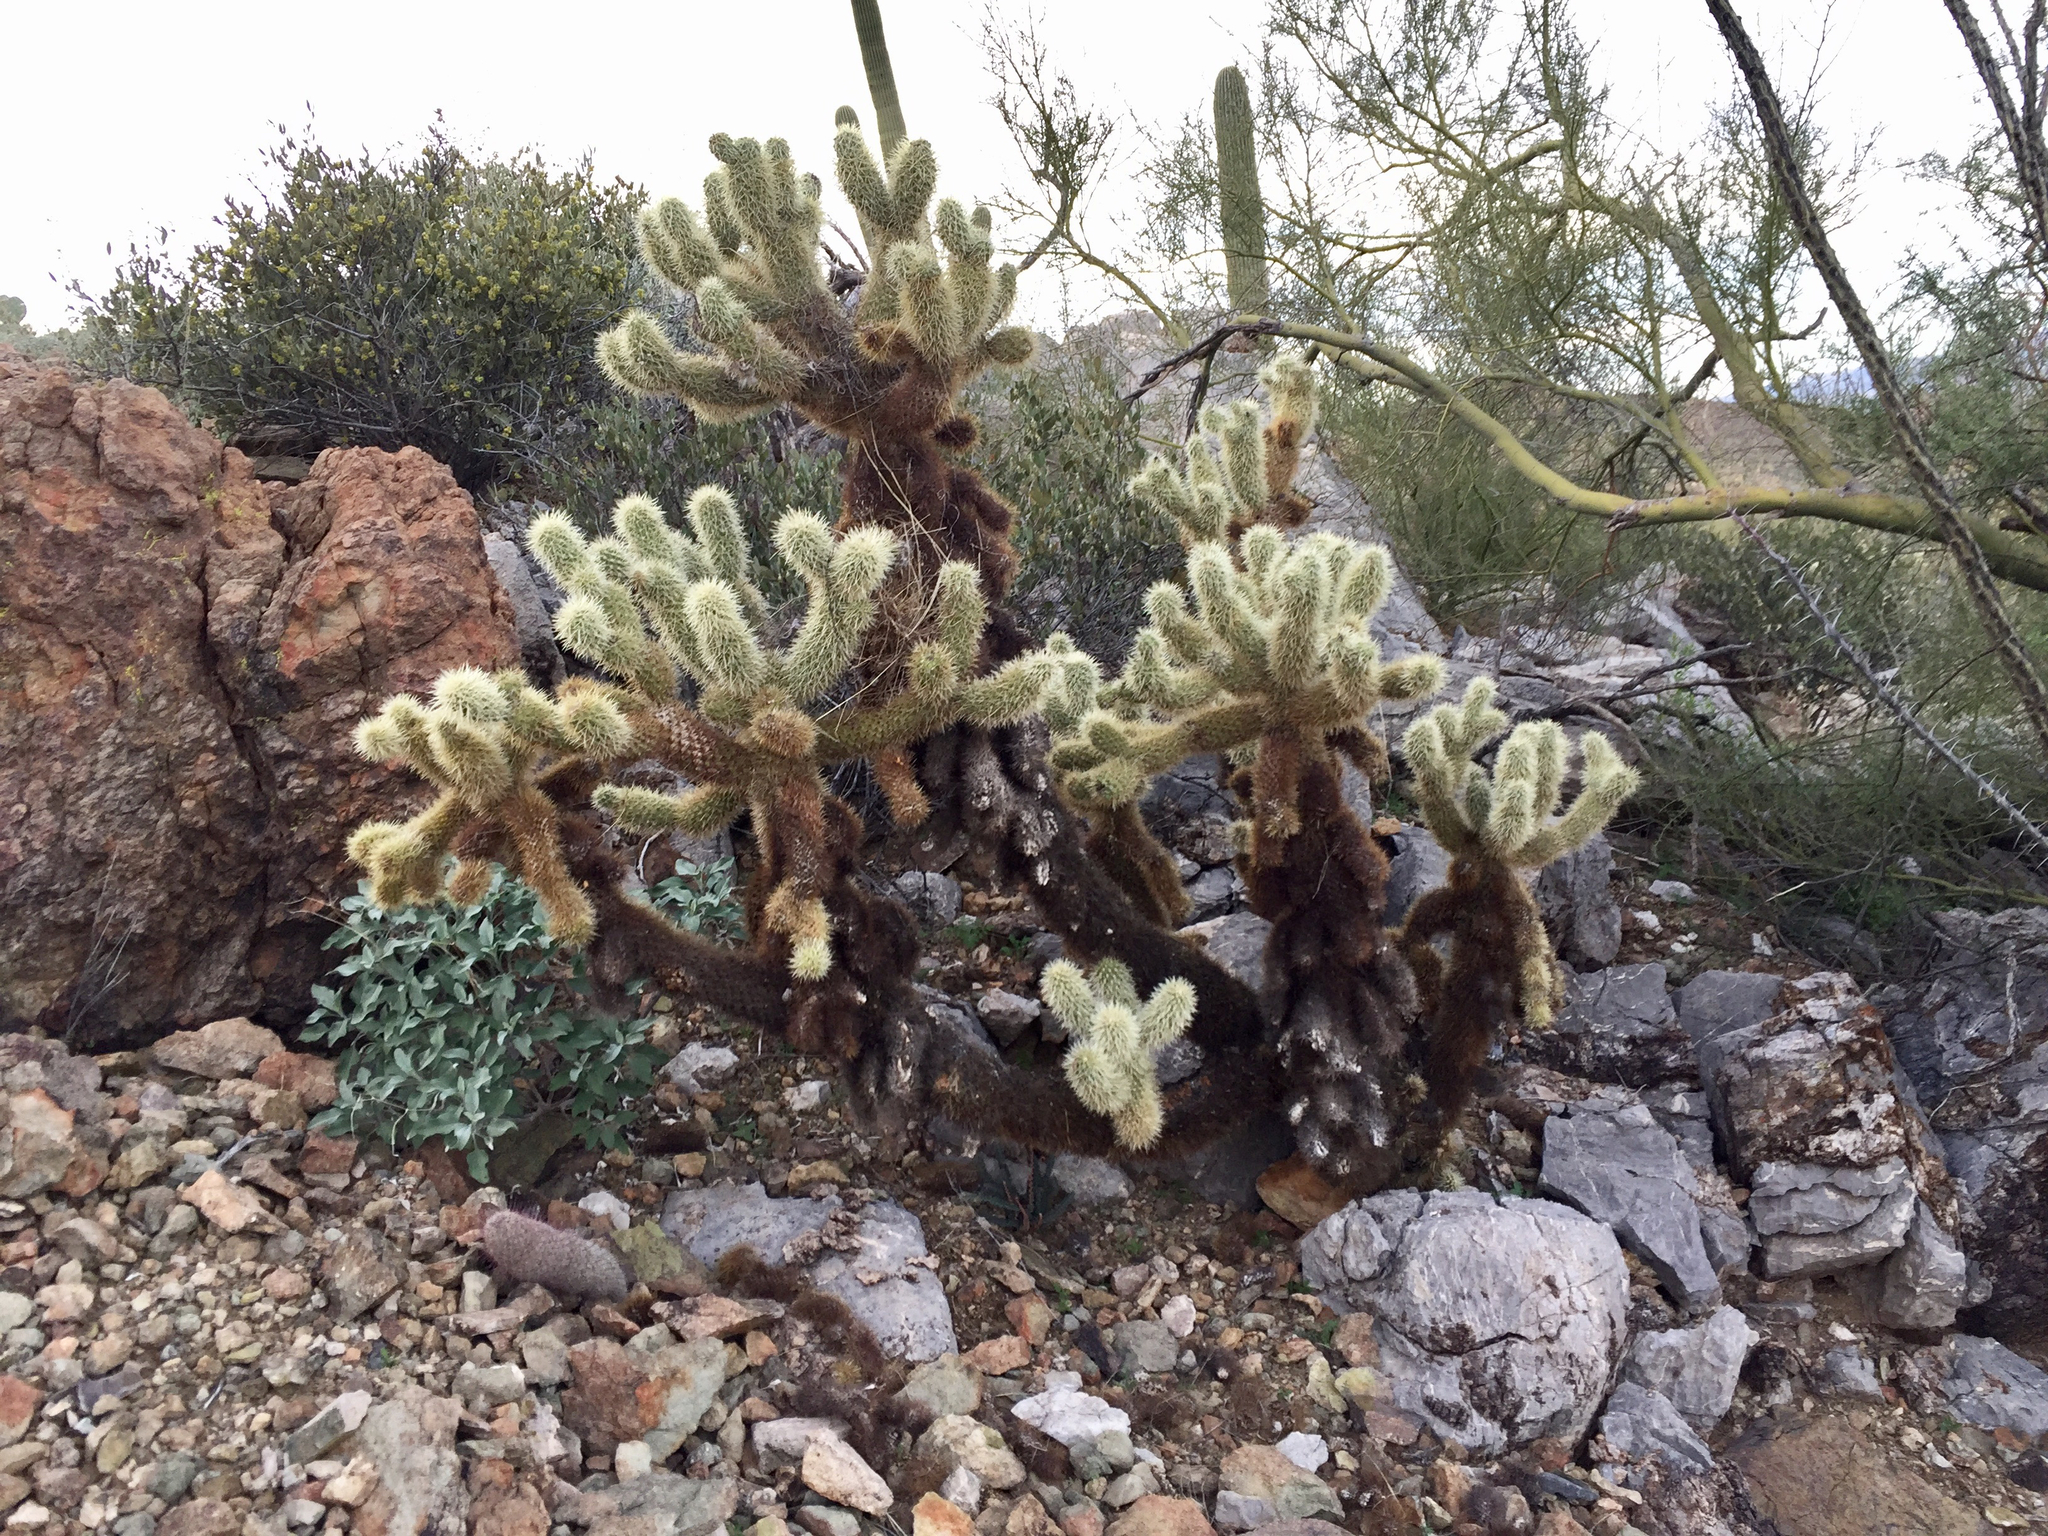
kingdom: Plantae
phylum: Tracheophyta
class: Magnoliopsida
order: Caryophyllales
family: Cactaceae
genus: Cylindropuntia
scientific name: Cylindropuntia fosbergii
